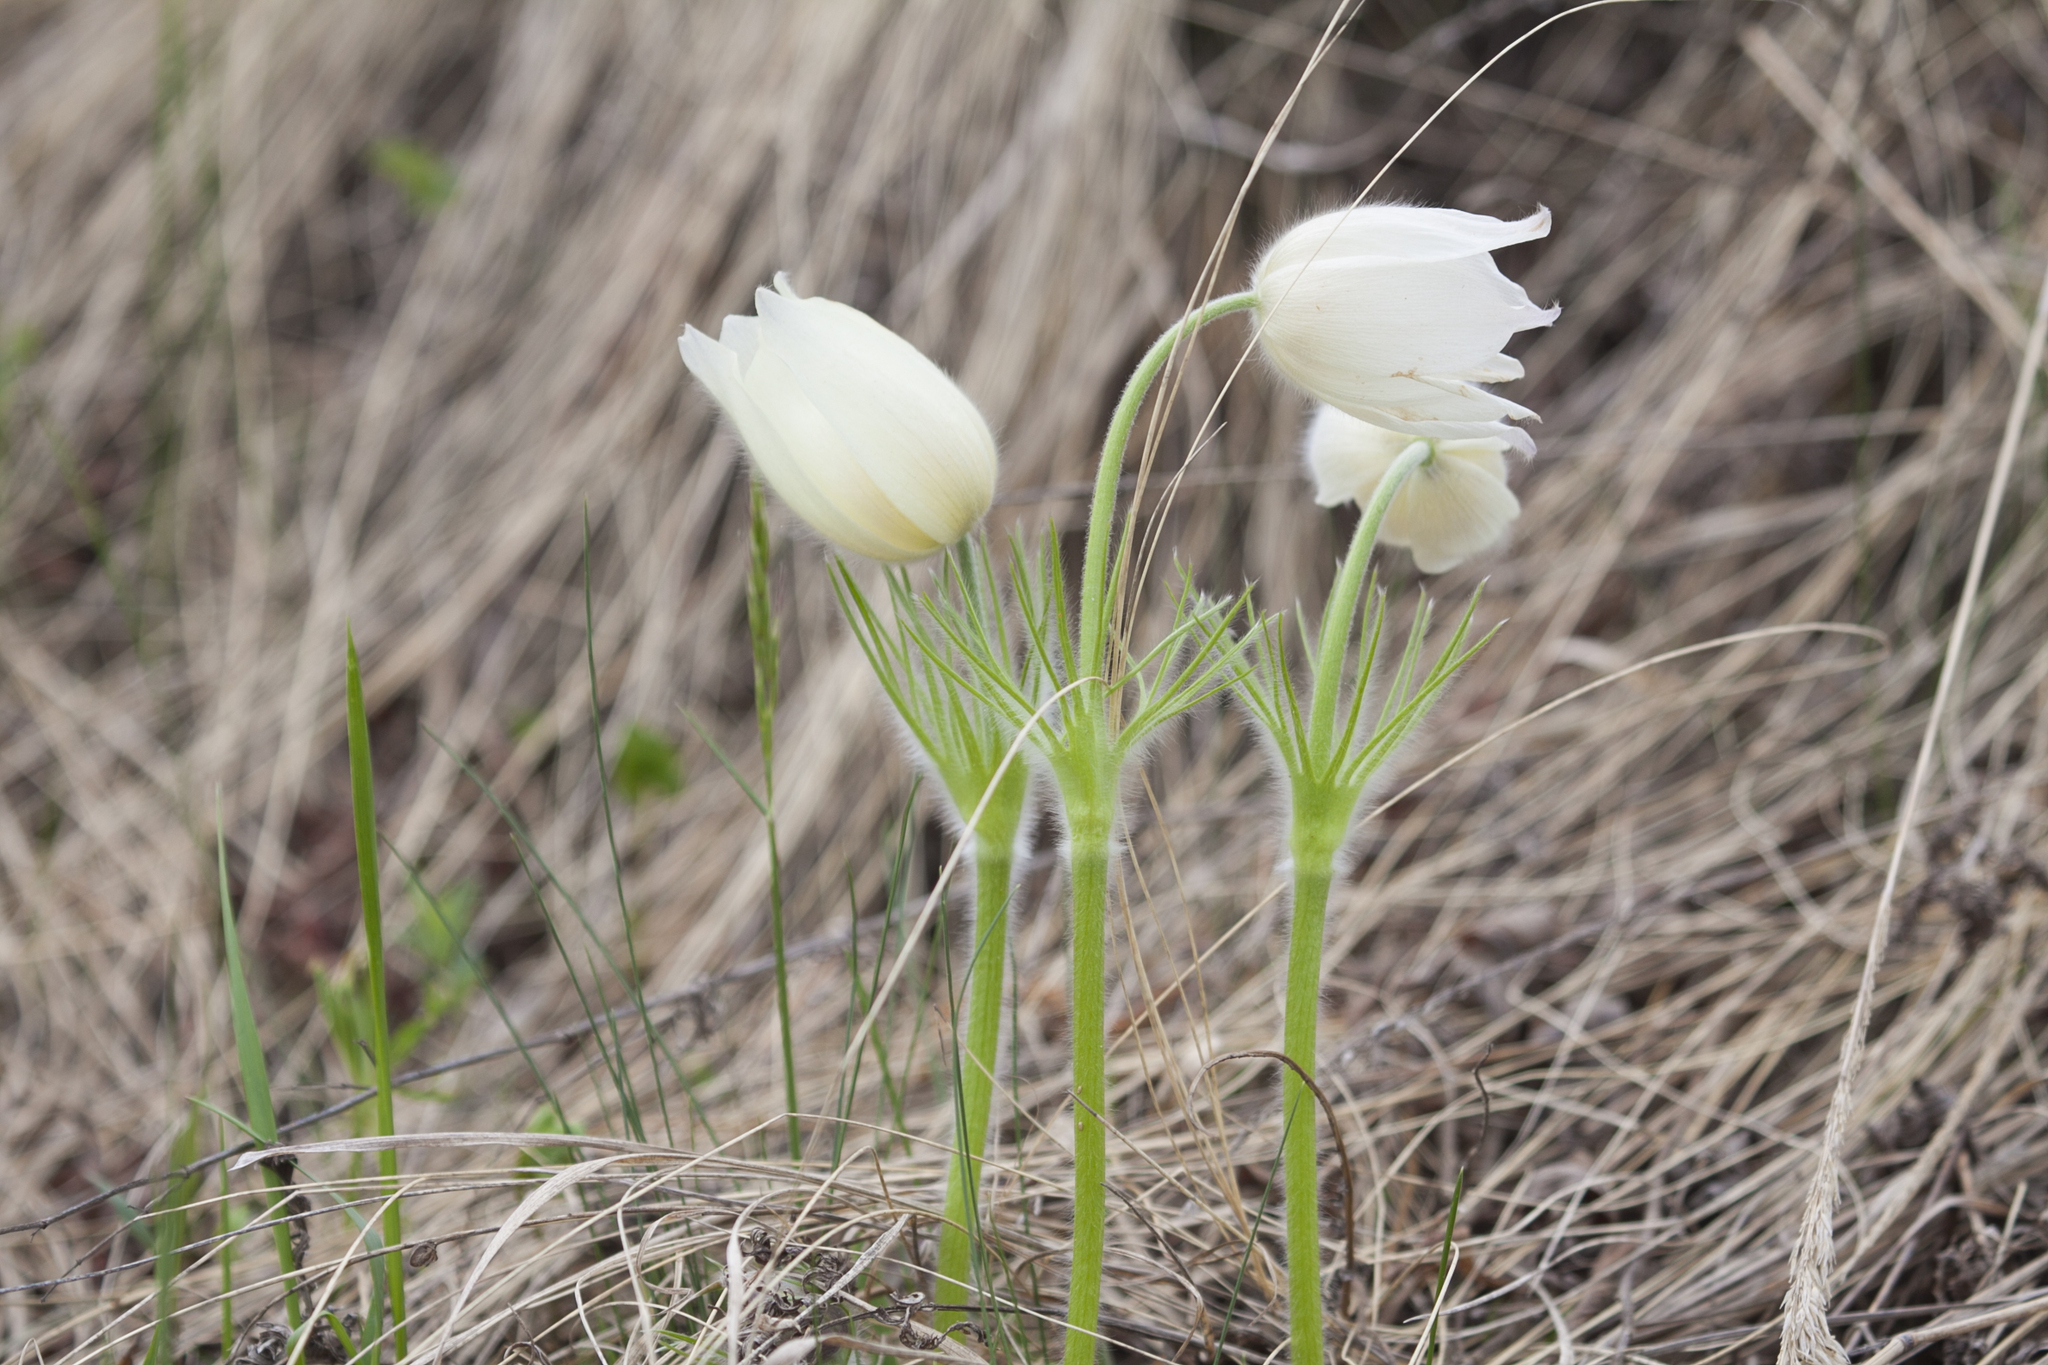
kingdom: Plantae
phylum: Tracheophyta
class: Magnoliopsida
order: Ranunculales
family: Ranunculaceae
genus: Pulsatilla
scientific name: Pulsatilla patens
